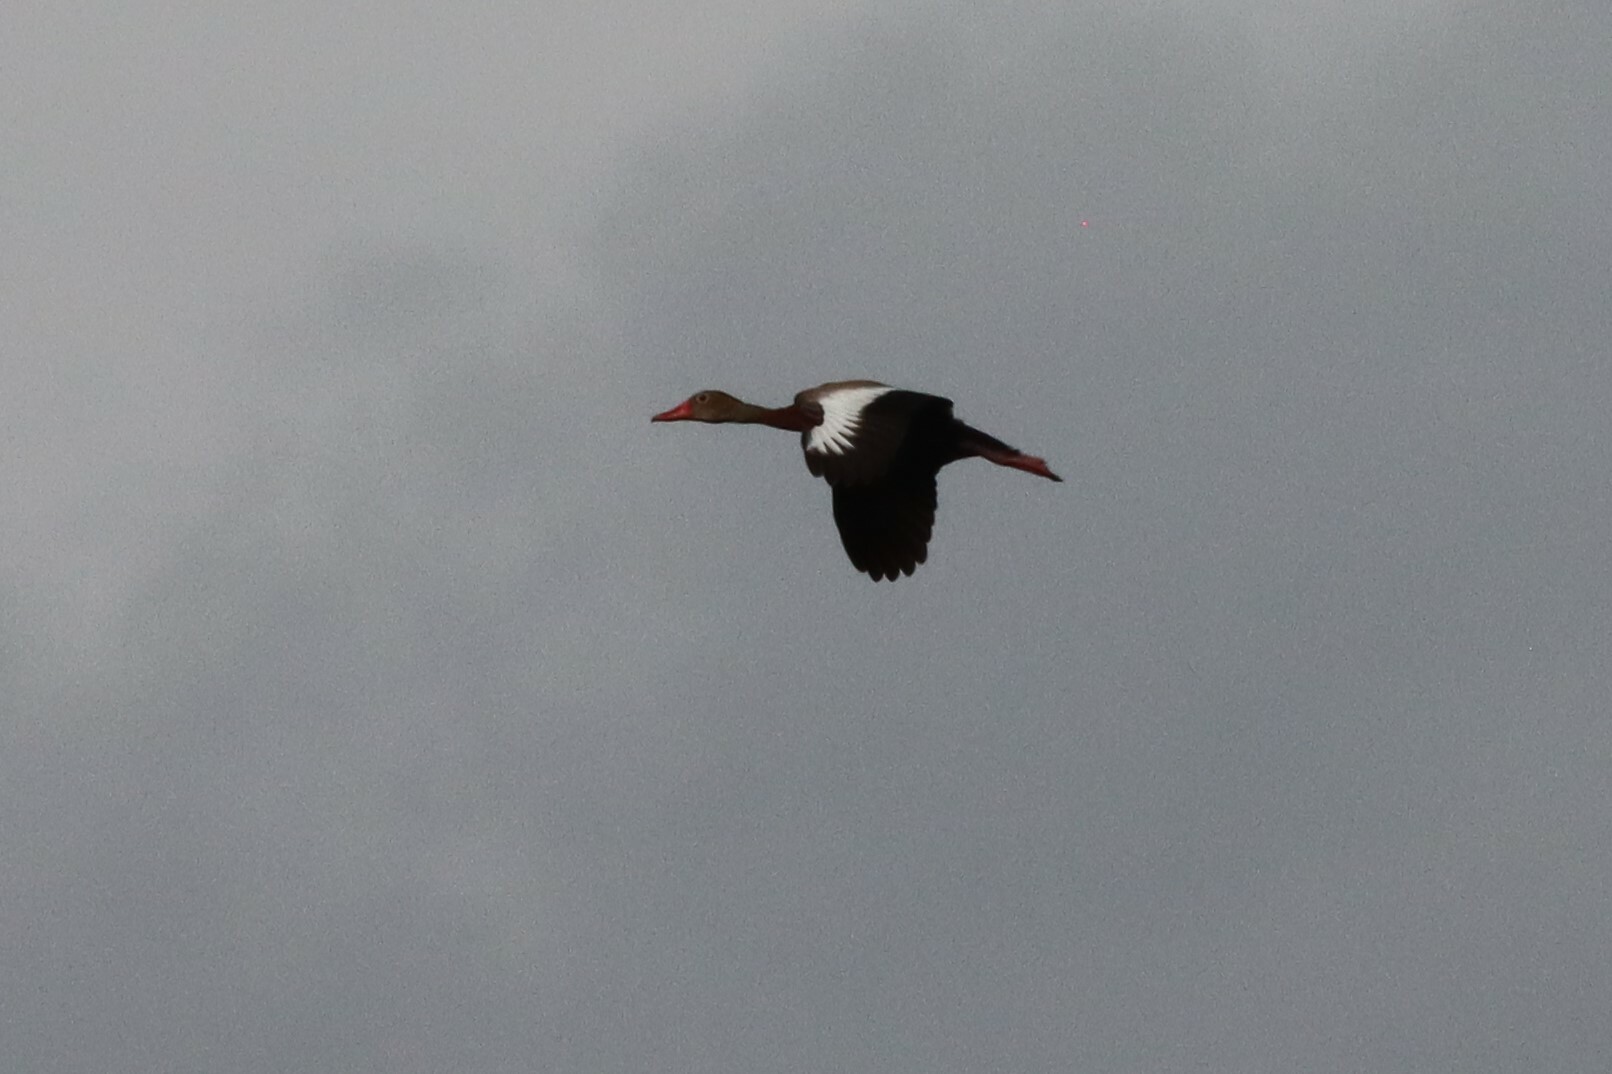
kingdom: Animalia
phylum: Chordata
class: Aves
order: Anseriformes
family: Anatidae
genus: Dendrocygna
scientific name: Dendrocygna autumnalis
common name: Black-bellied whistling duck
